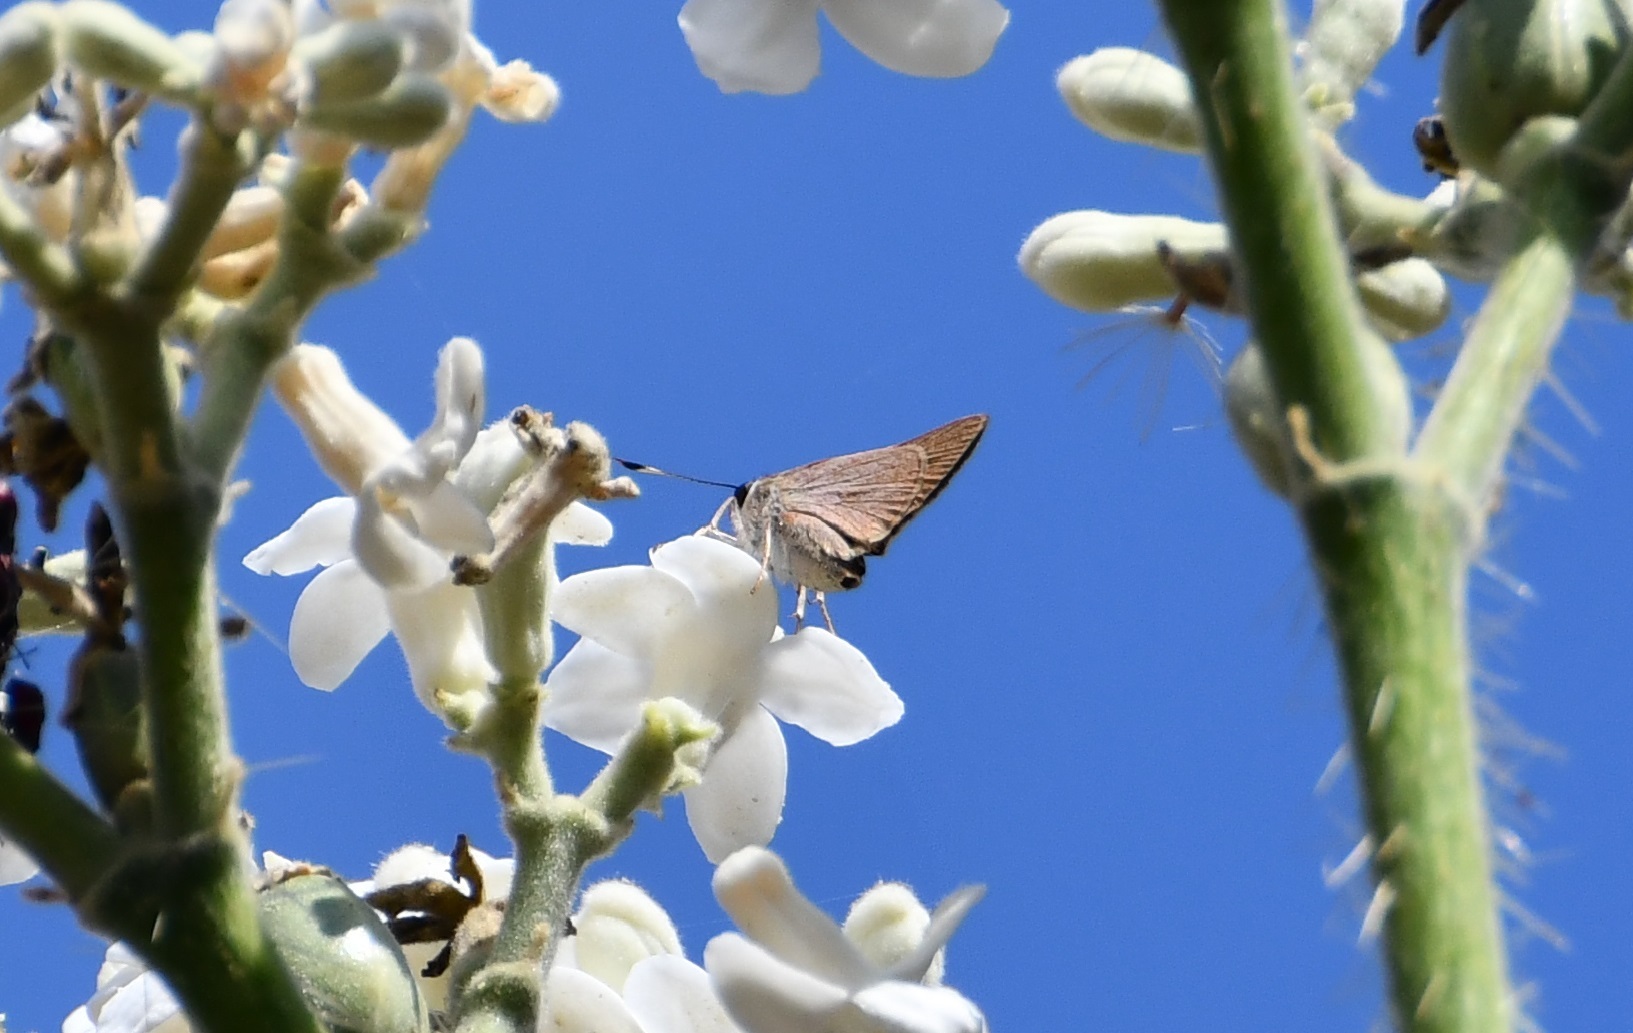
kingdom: Animalia
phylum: Arthropoda
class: Insecta
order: Lepidoptera
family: Hesperiidae
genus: Lerodea
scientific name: Lerodea eufala
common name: Eufala skipper
